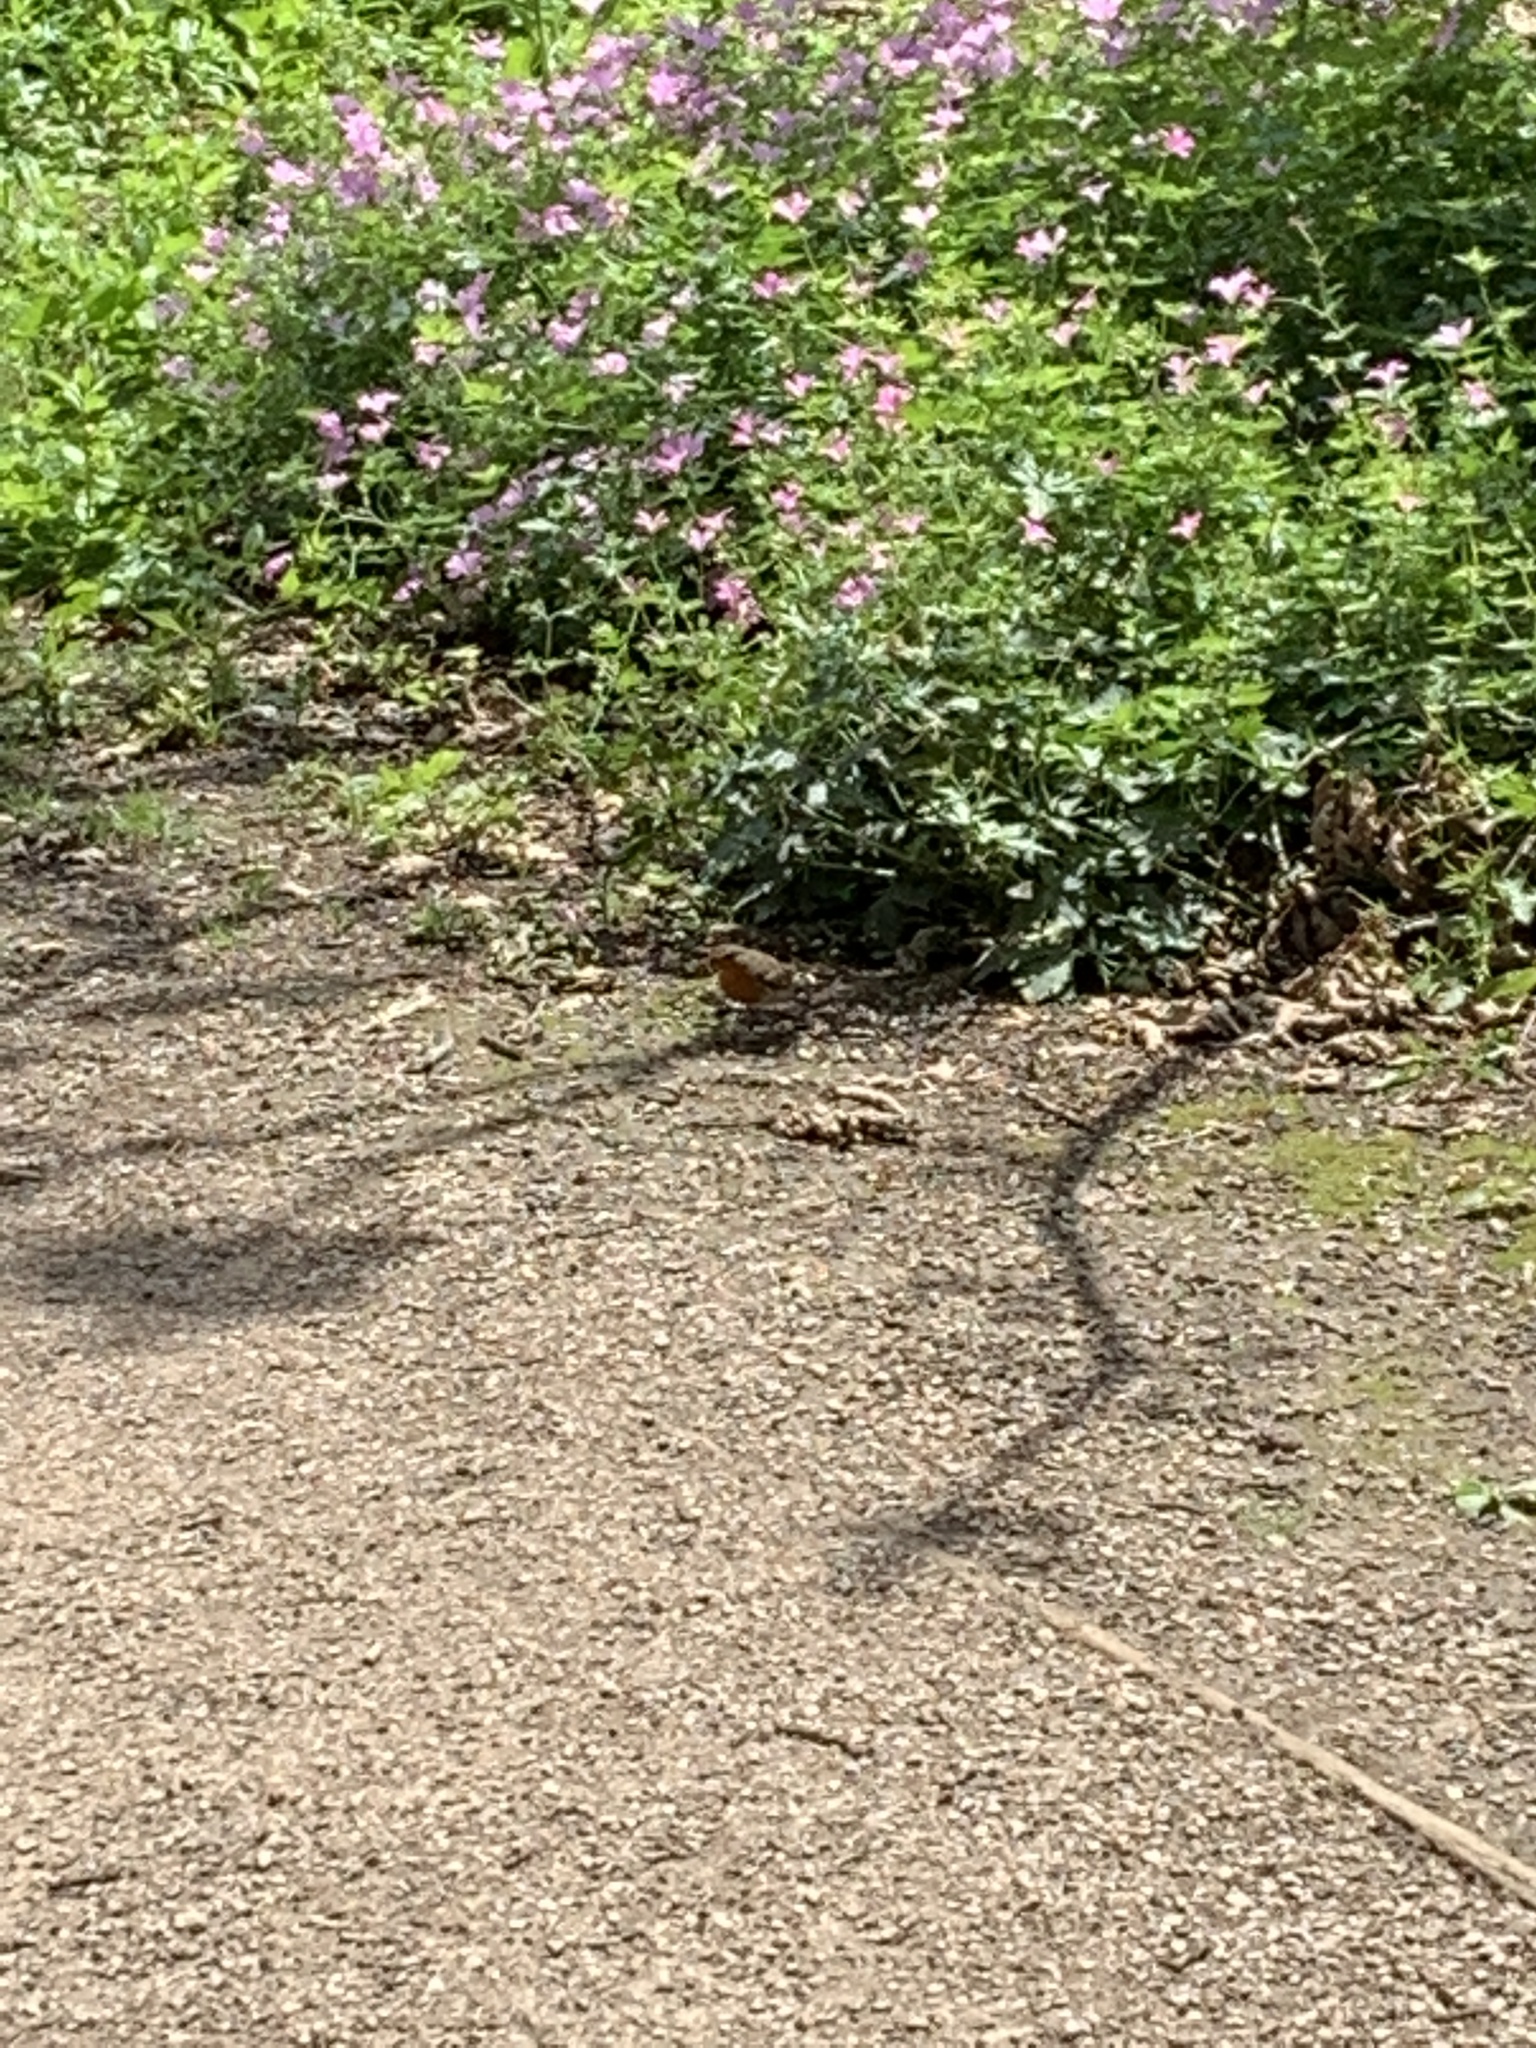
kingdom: Animalia
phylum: Chordata
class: Aves
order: Passeriformes
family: Muscicapidae
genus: Erithacus
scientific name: Erithacus rubecula
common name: European robin
